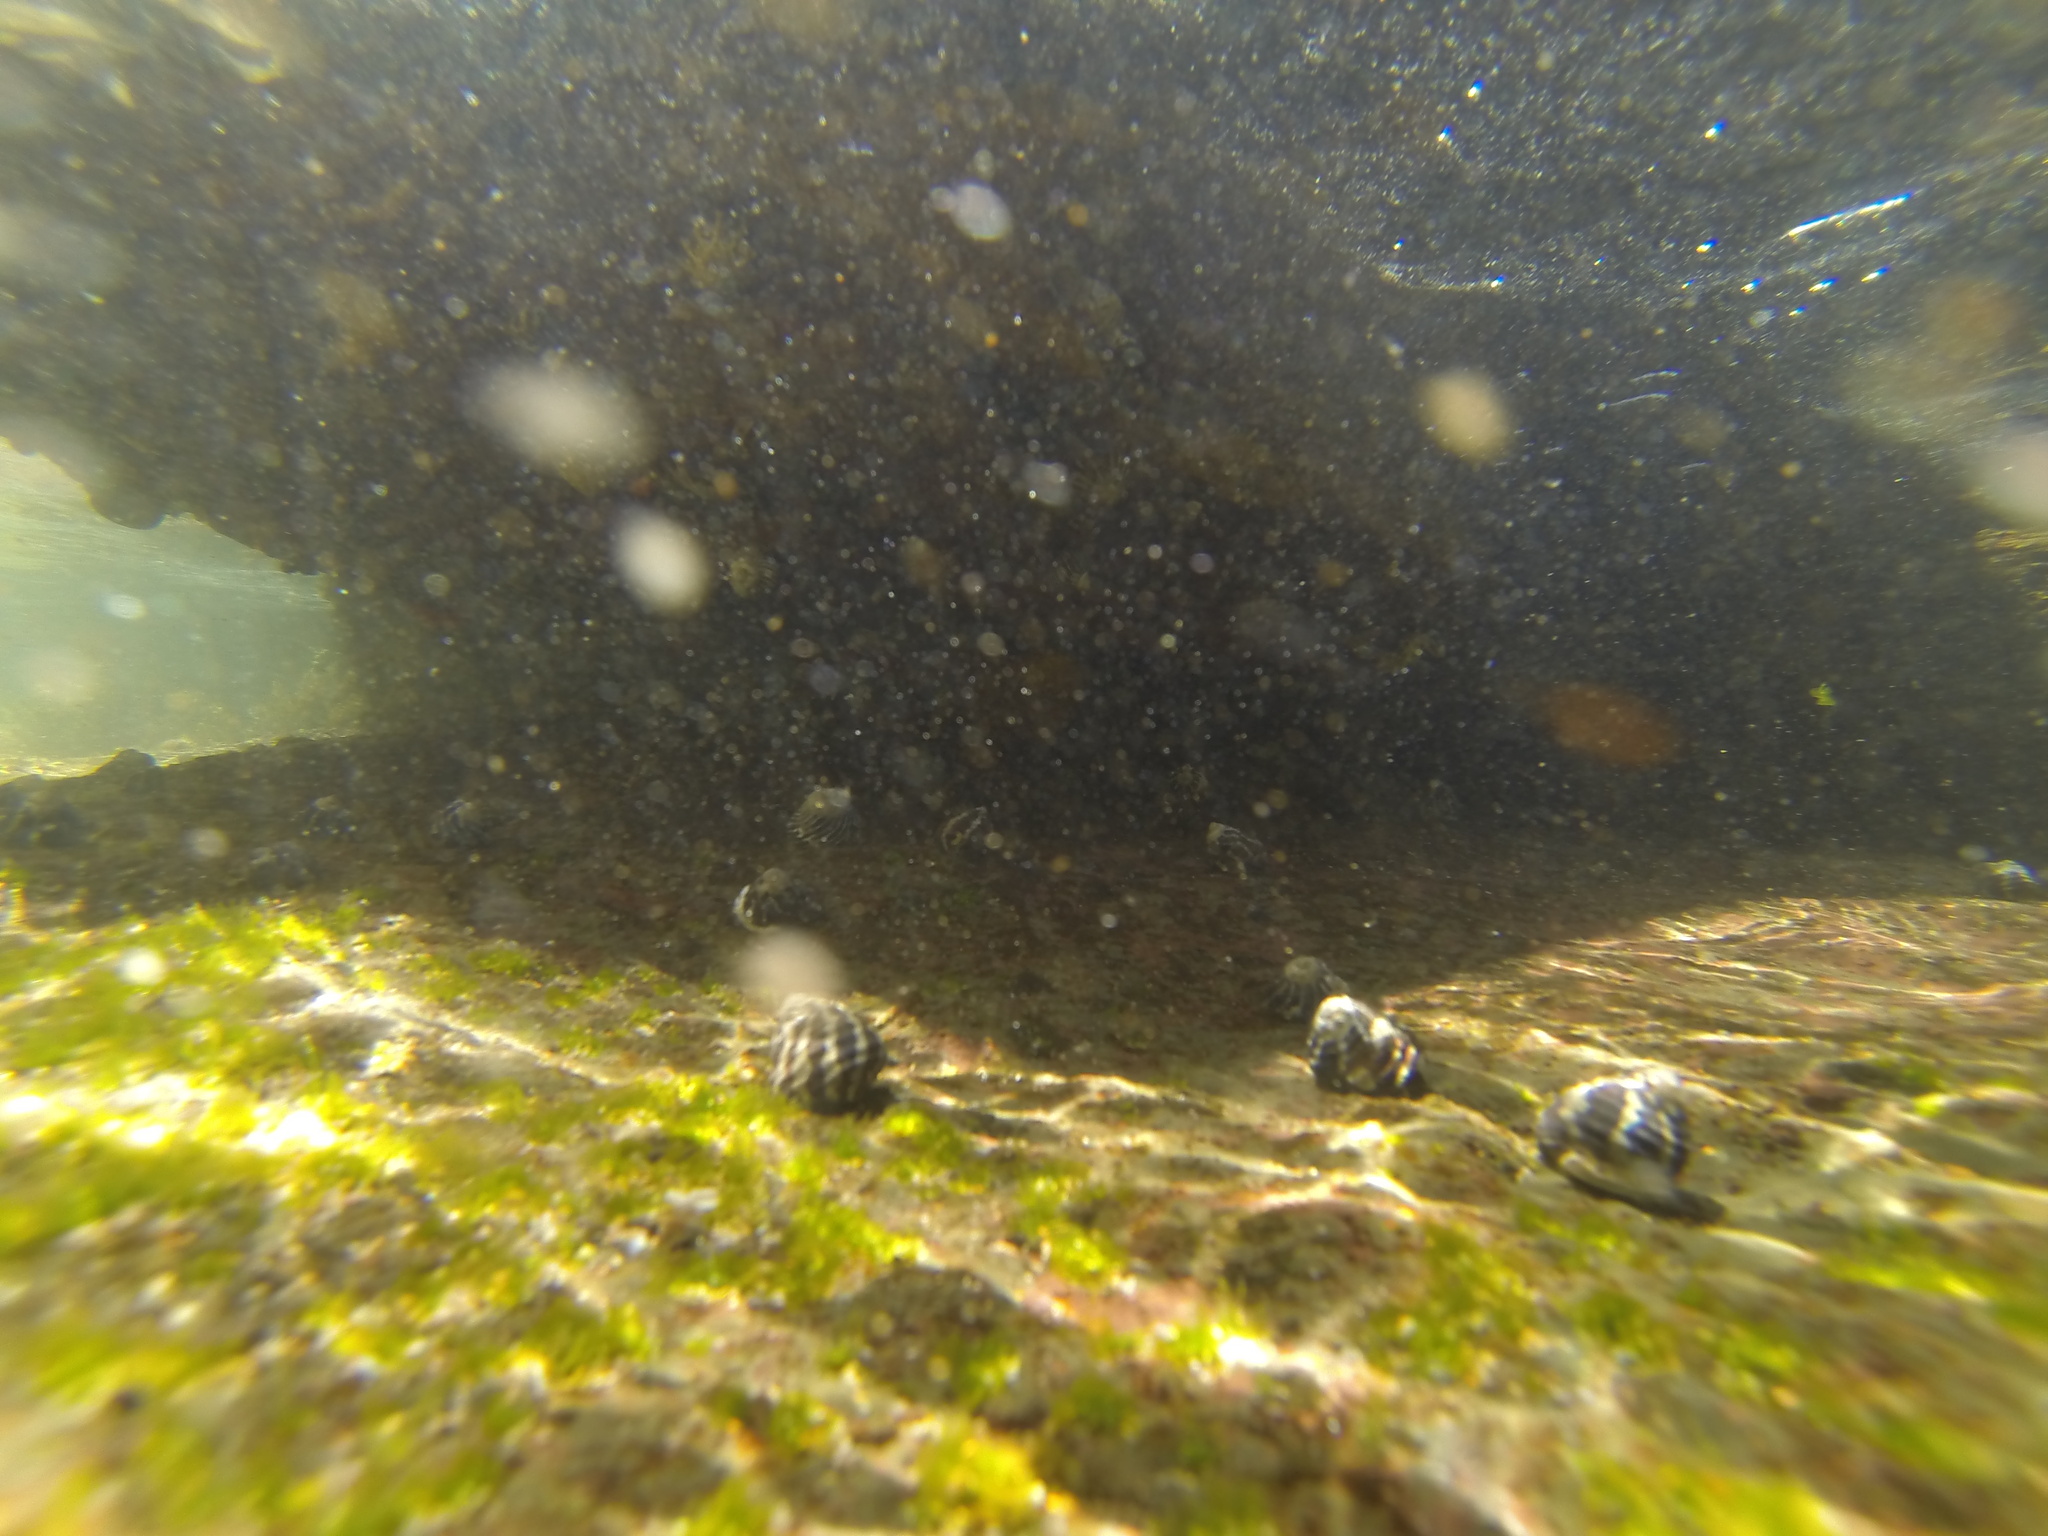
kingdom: Animalia
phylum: Mollusca
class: Gastropoda
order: Trochida
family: Trochidae
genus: Austrocochlea
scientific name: Austrocochlea porcata
